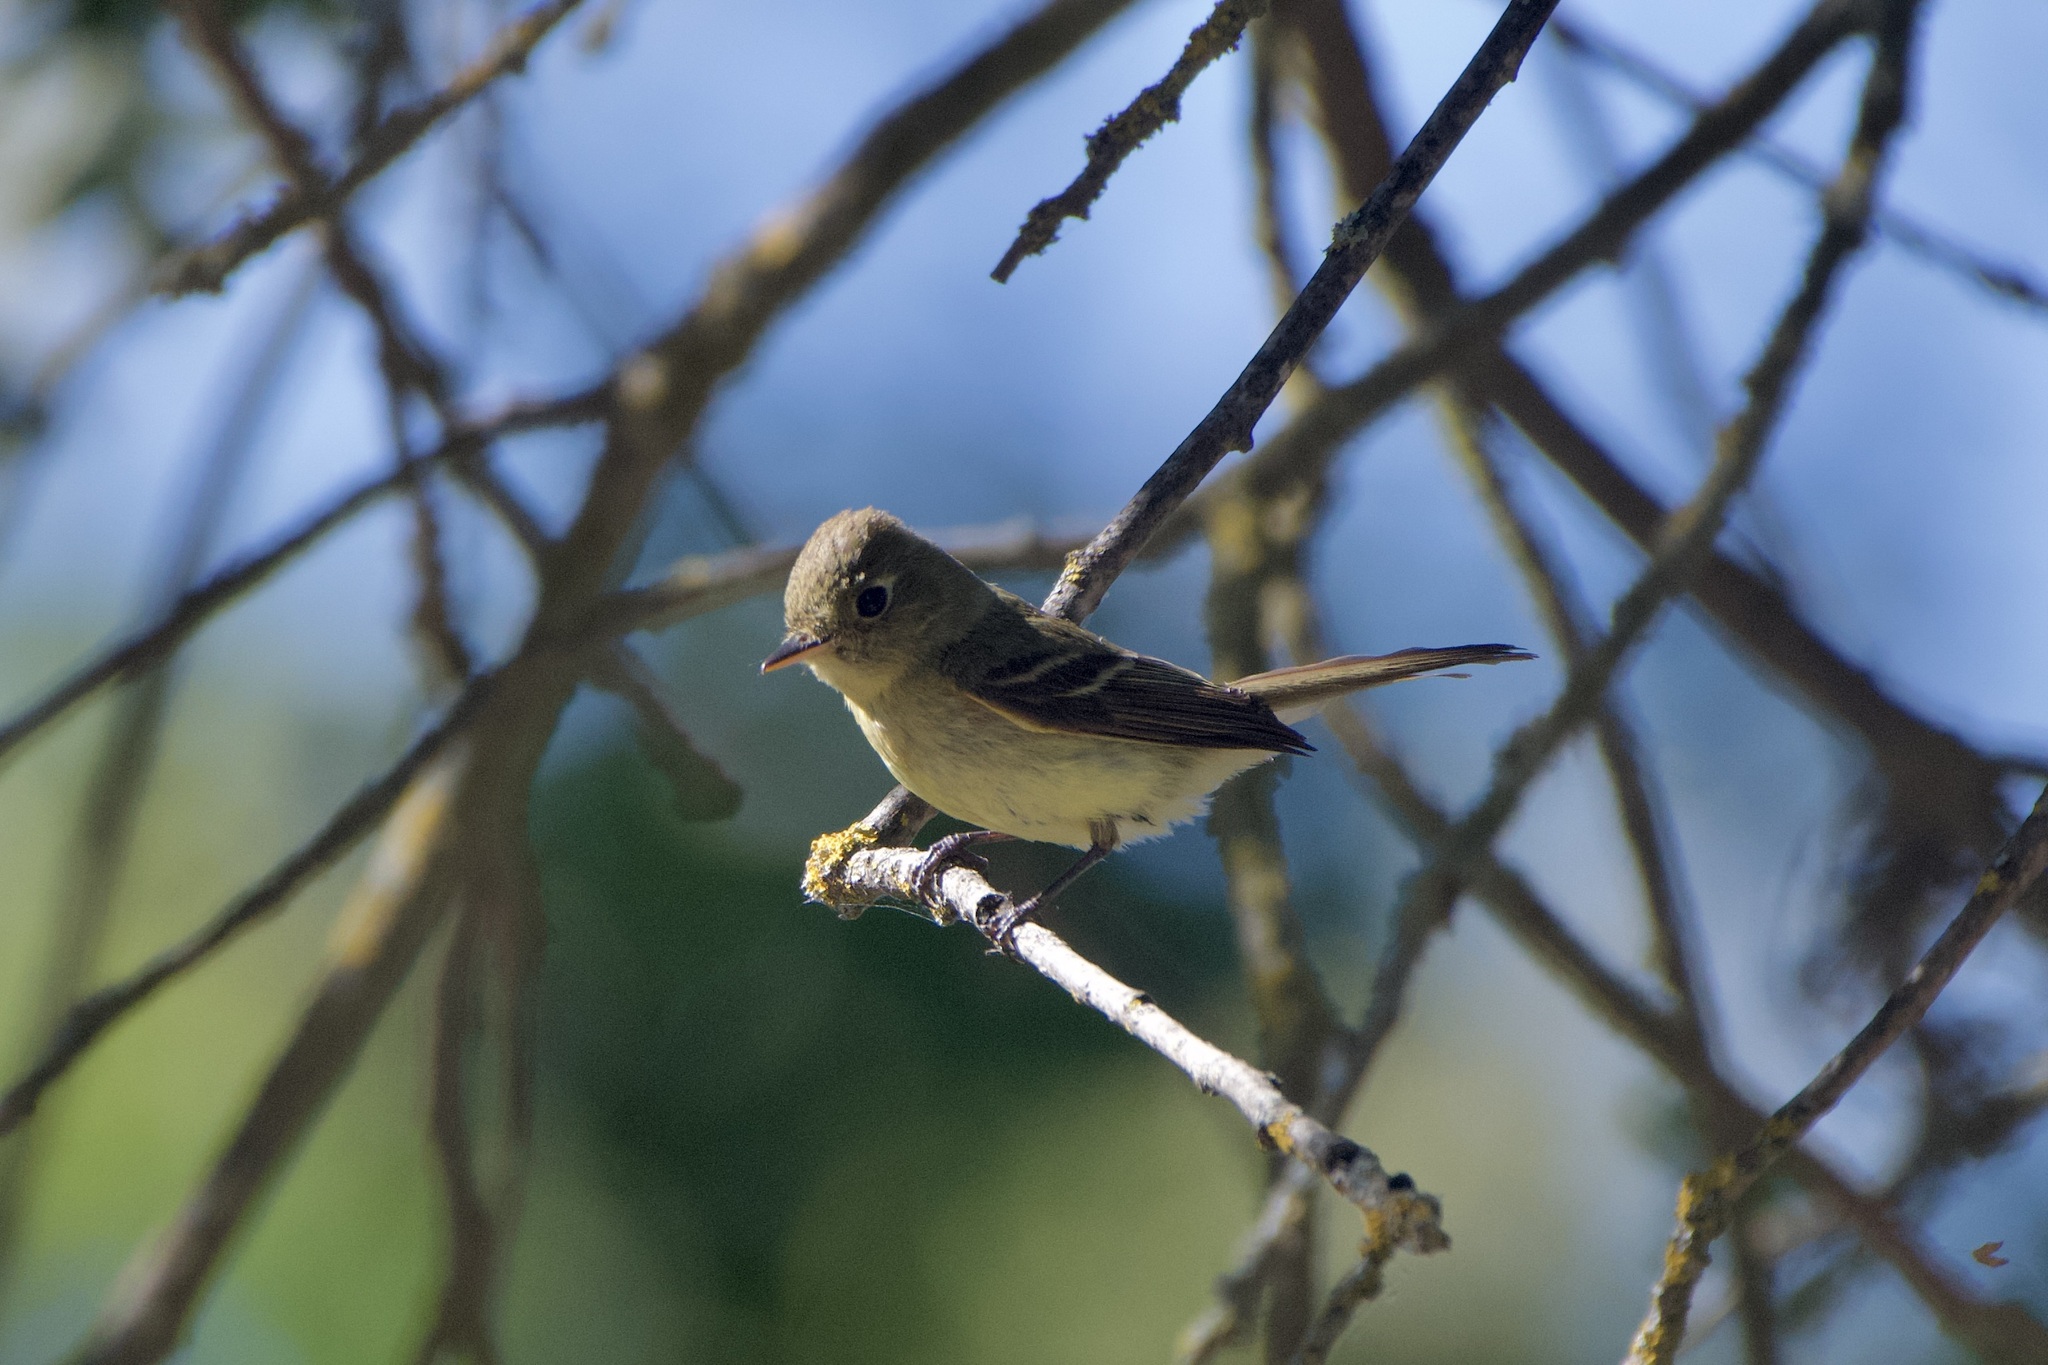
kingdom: Animalia
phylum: Chordata
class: Aves
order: Passeriformes
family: Tyrannidae
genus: Empidonax
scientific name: Empidonax difficilis
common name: Pacific-slope flycatcher
